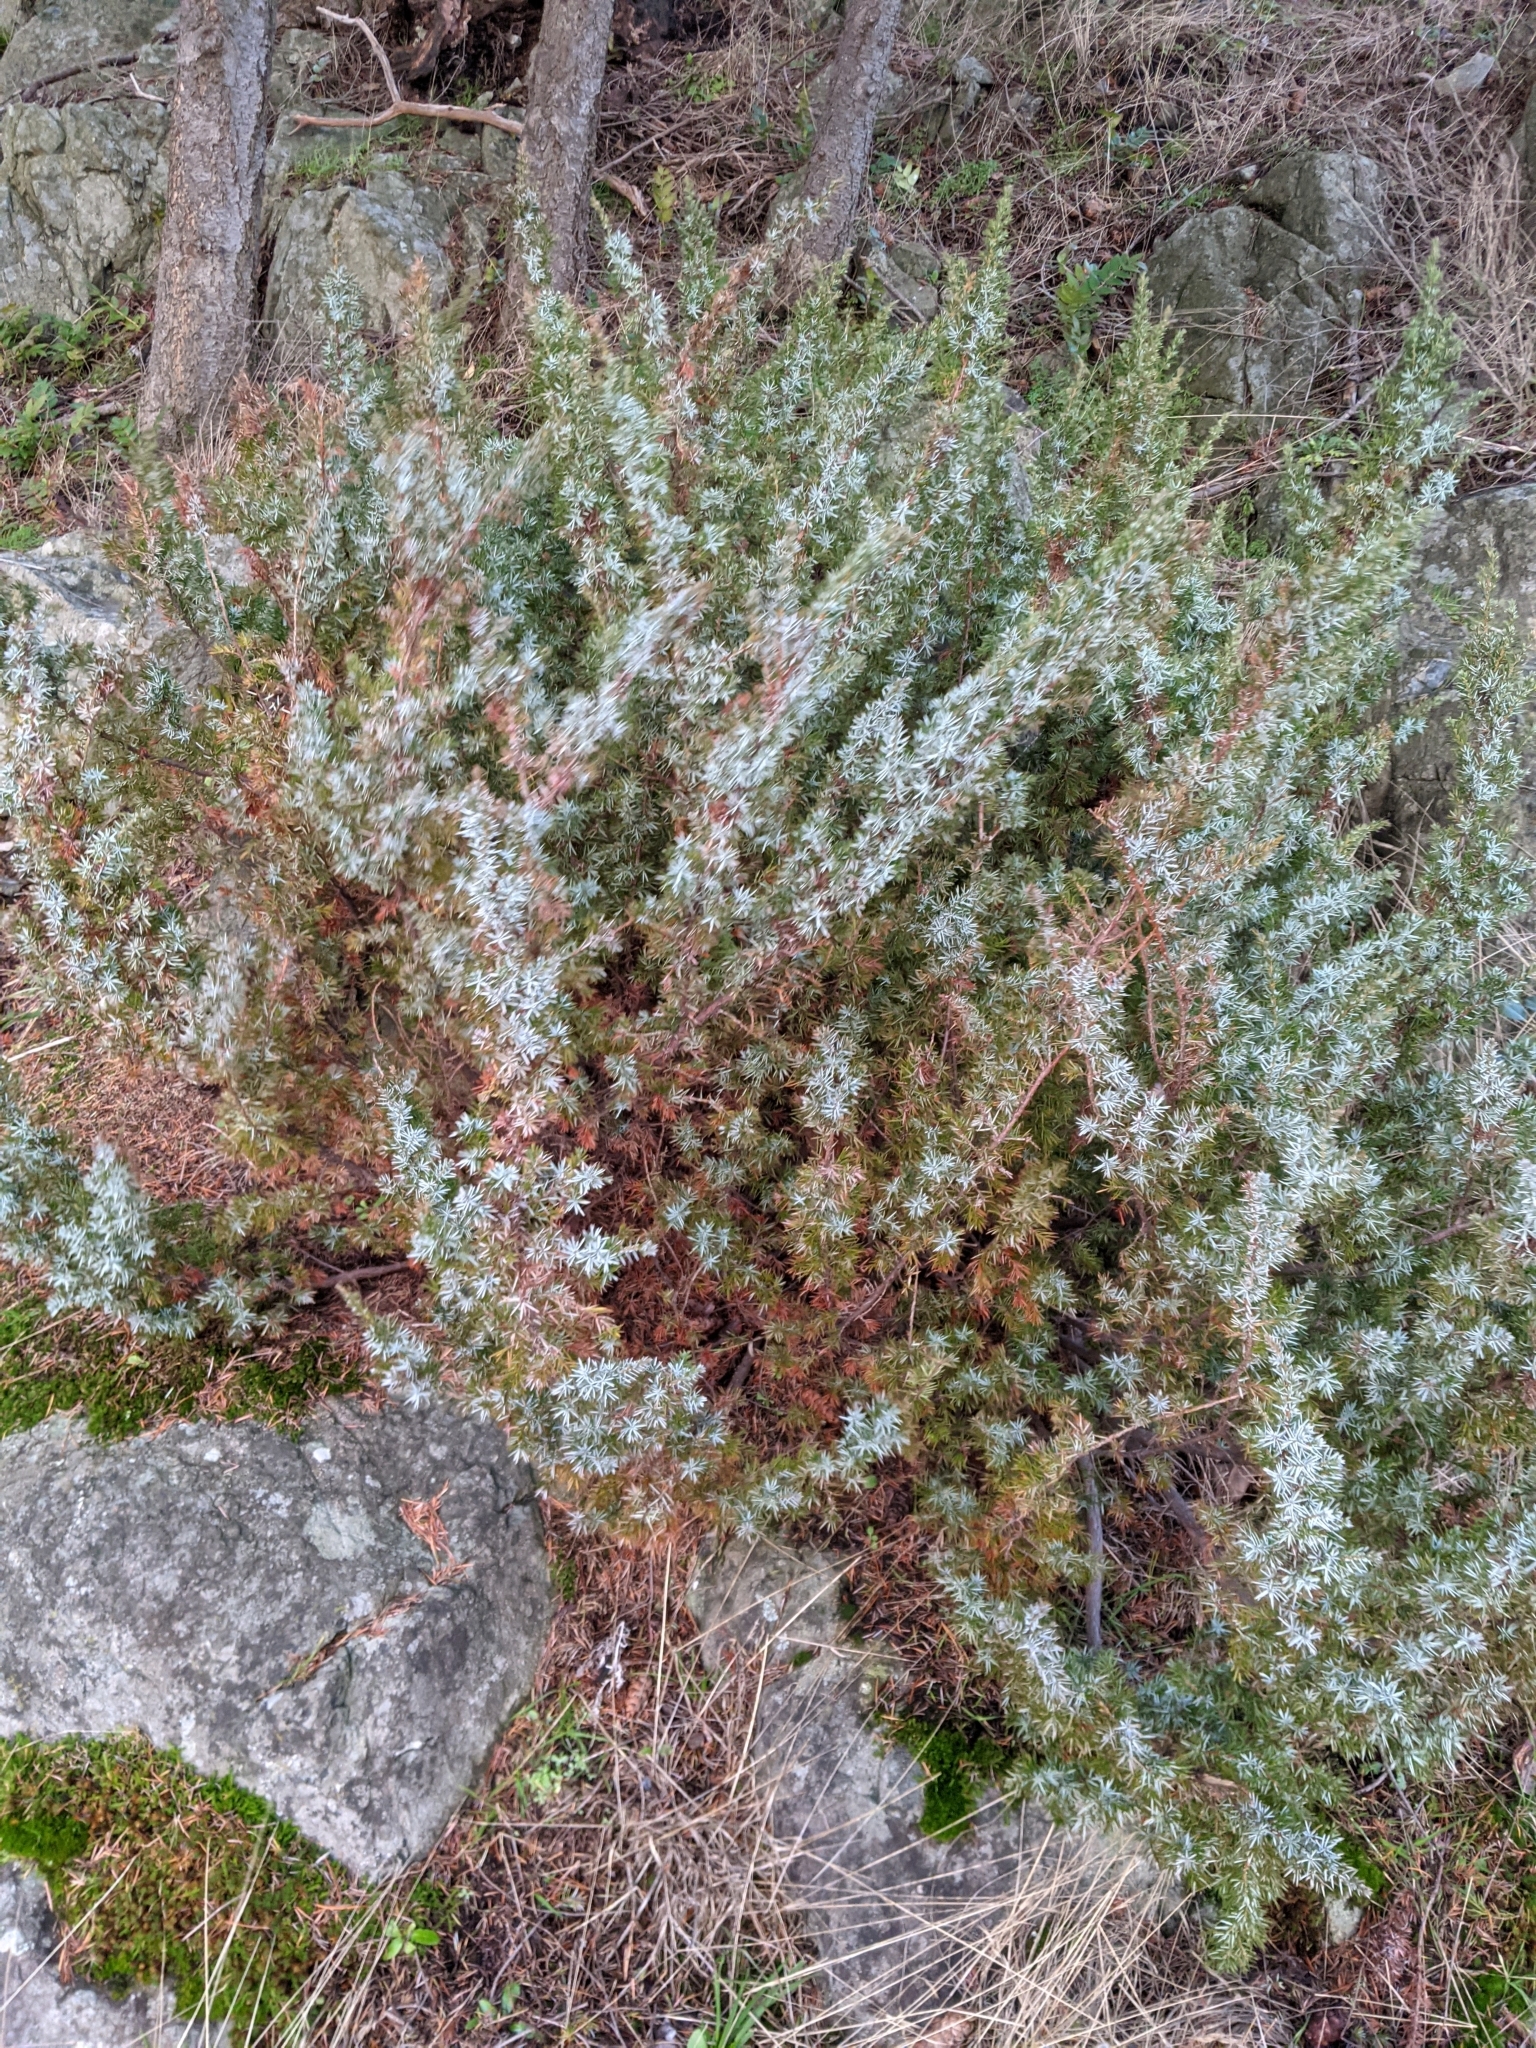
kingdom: Plantae
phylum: Tracheophyta
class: Pinopsida
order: Pinales
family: Cupressaceae
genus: Juniperus
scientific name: Juniperus communis
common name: Common juniper
